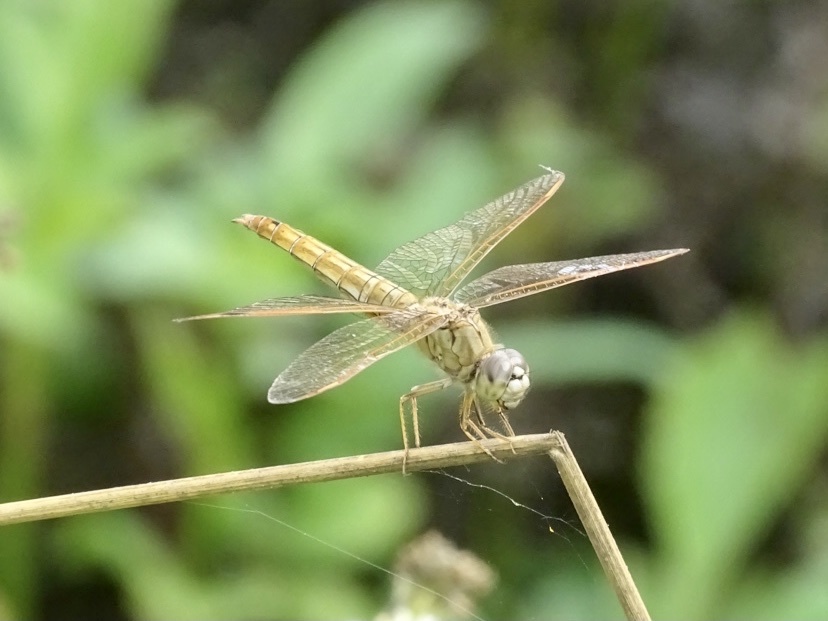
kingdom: Animalia
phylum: Arthropoda
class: Insecta
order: Odonata
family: Libellulidae
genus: Brachythemis
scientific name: Brachythemis contaminata
